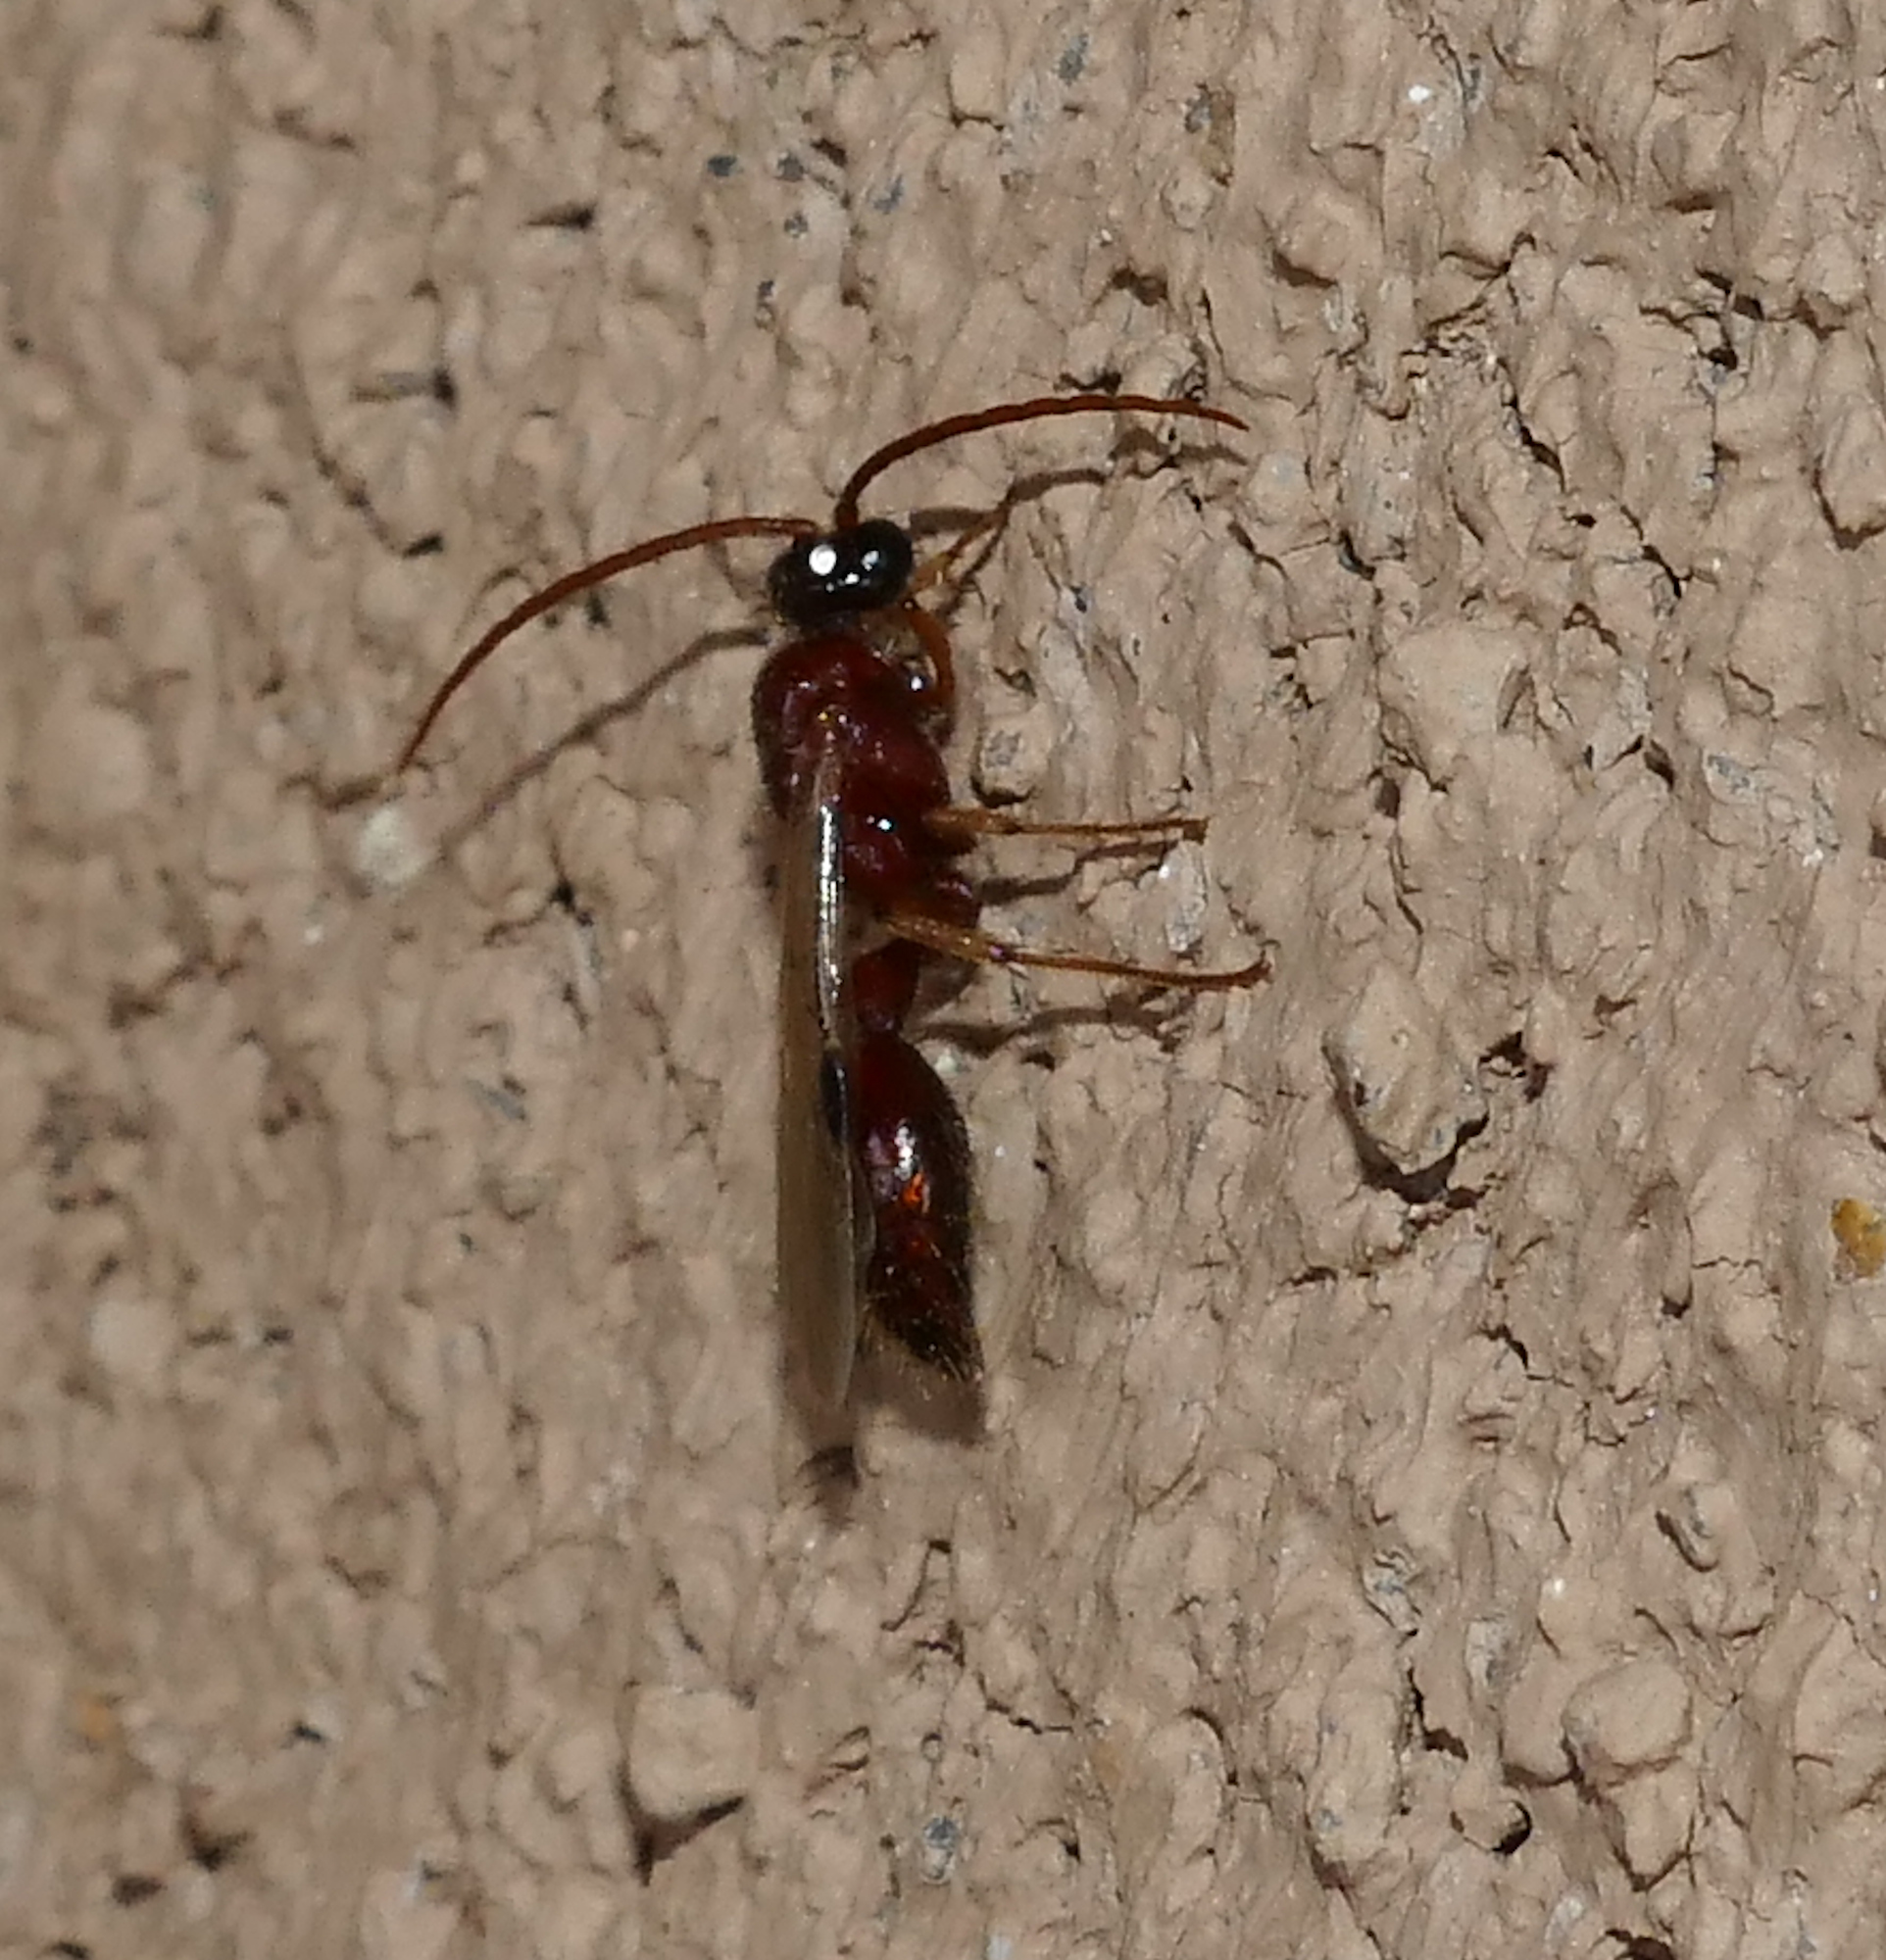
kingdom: Animalia
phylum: Arthropoda
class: Insecta
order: Hymenoptera
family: Tiphiidae
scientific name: Tiphiidae
